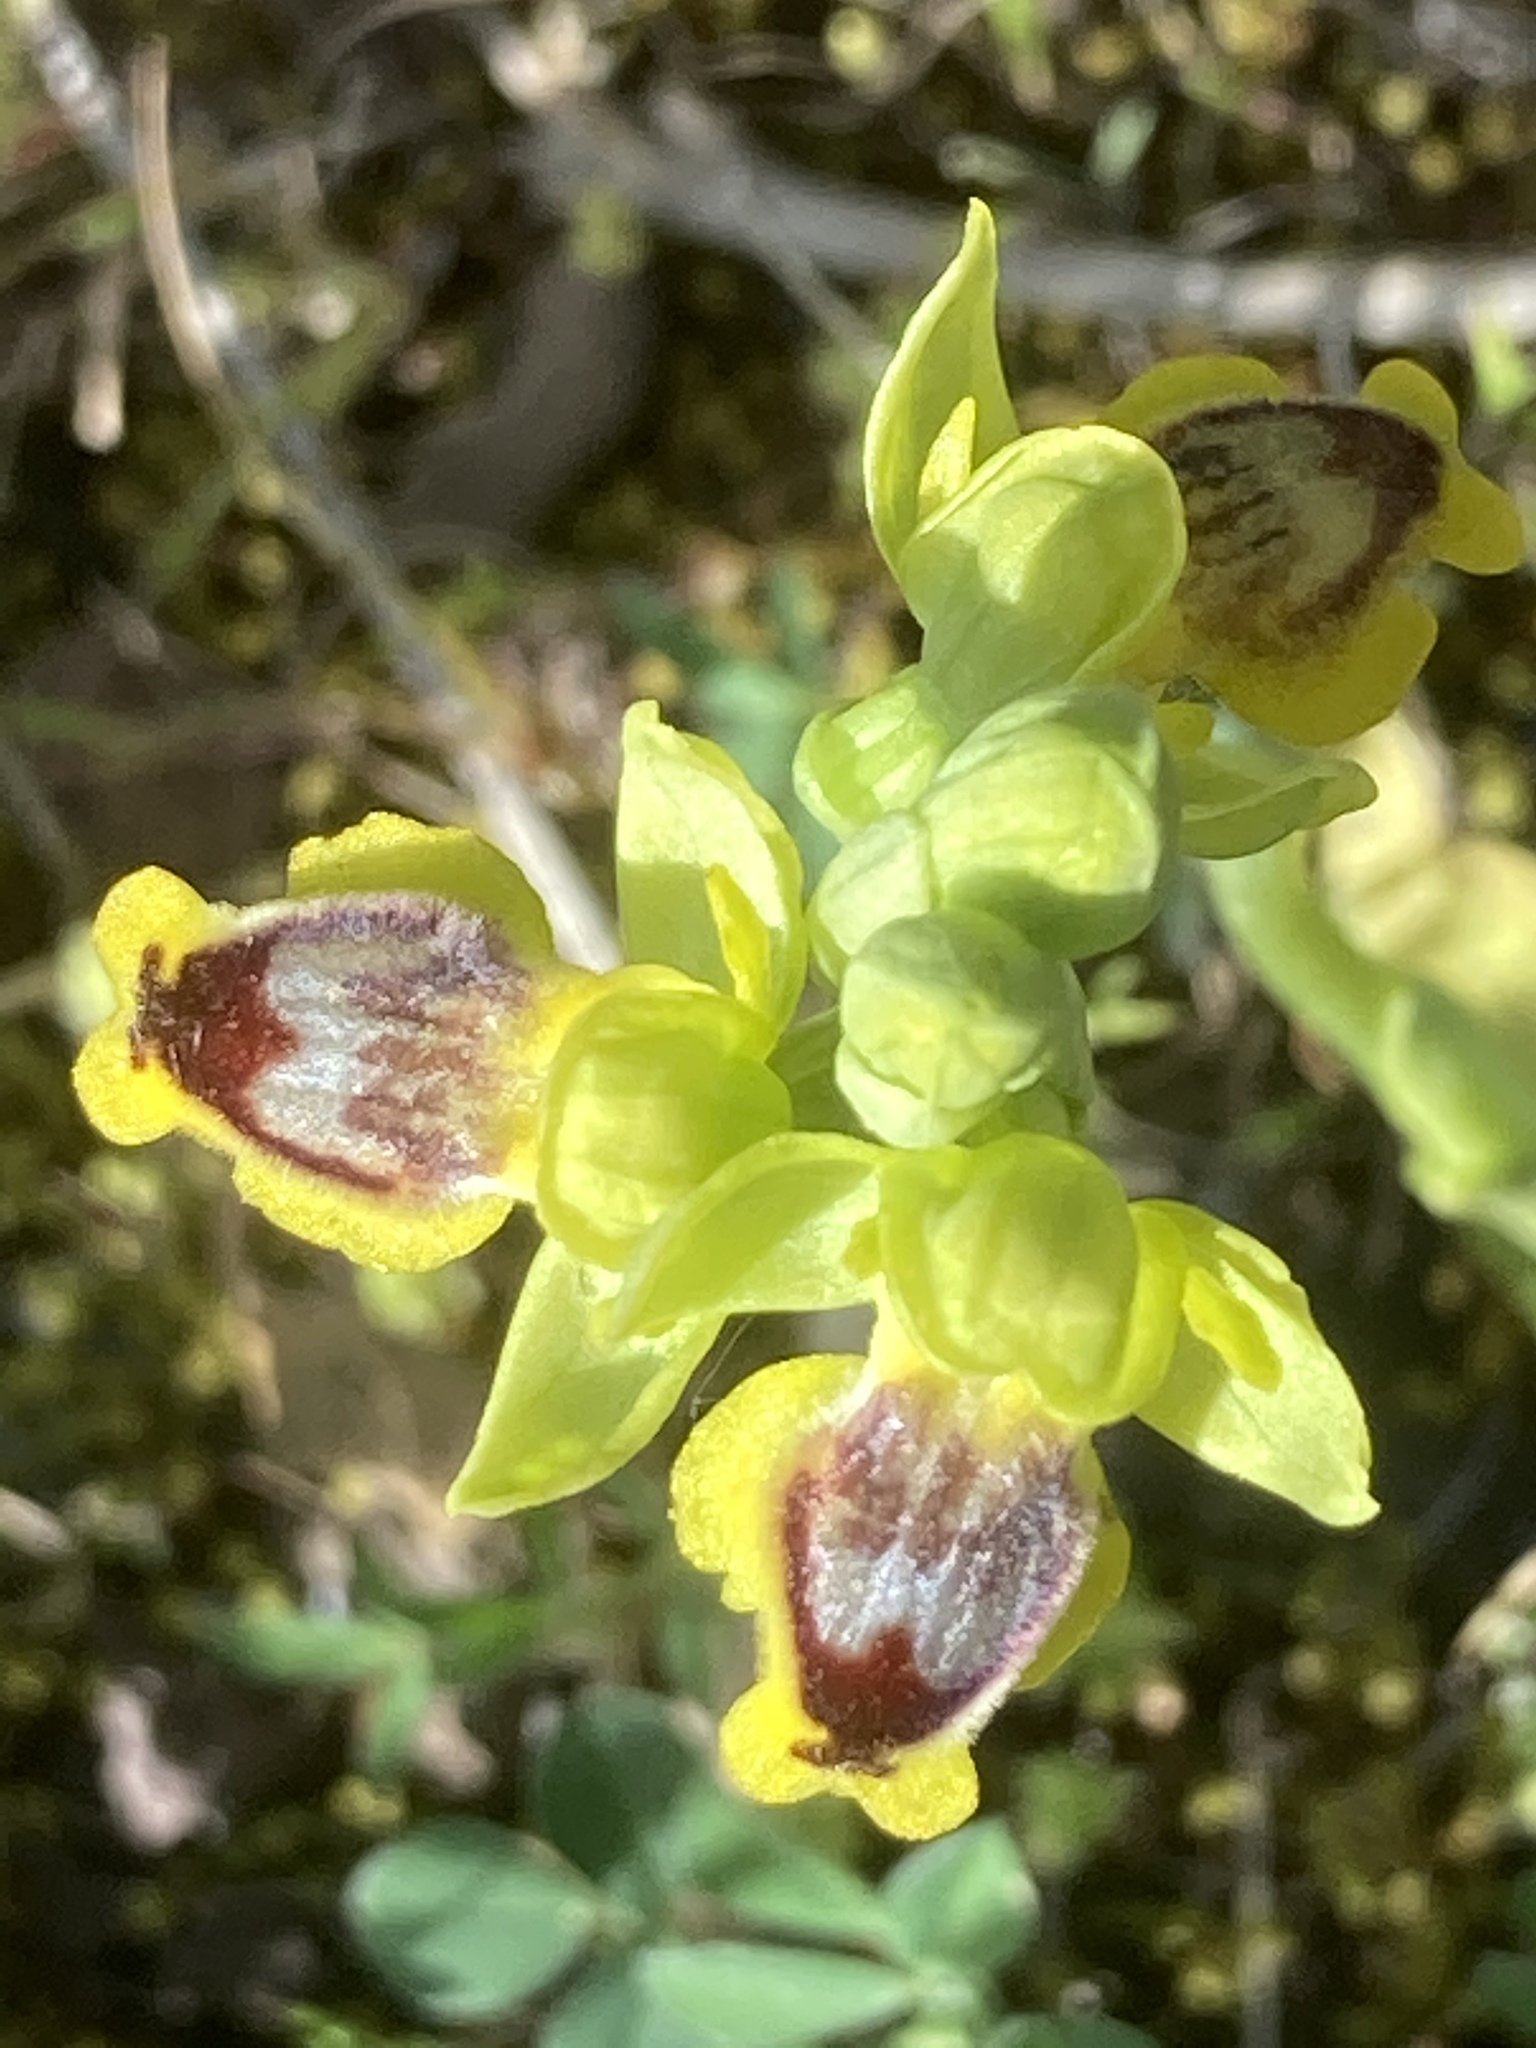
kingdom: Plantae
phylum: Tracheophyta
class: Liliopsida
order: Asparagales
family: Orchidaceae
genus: Ophrys
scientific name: Ophrys lutea
